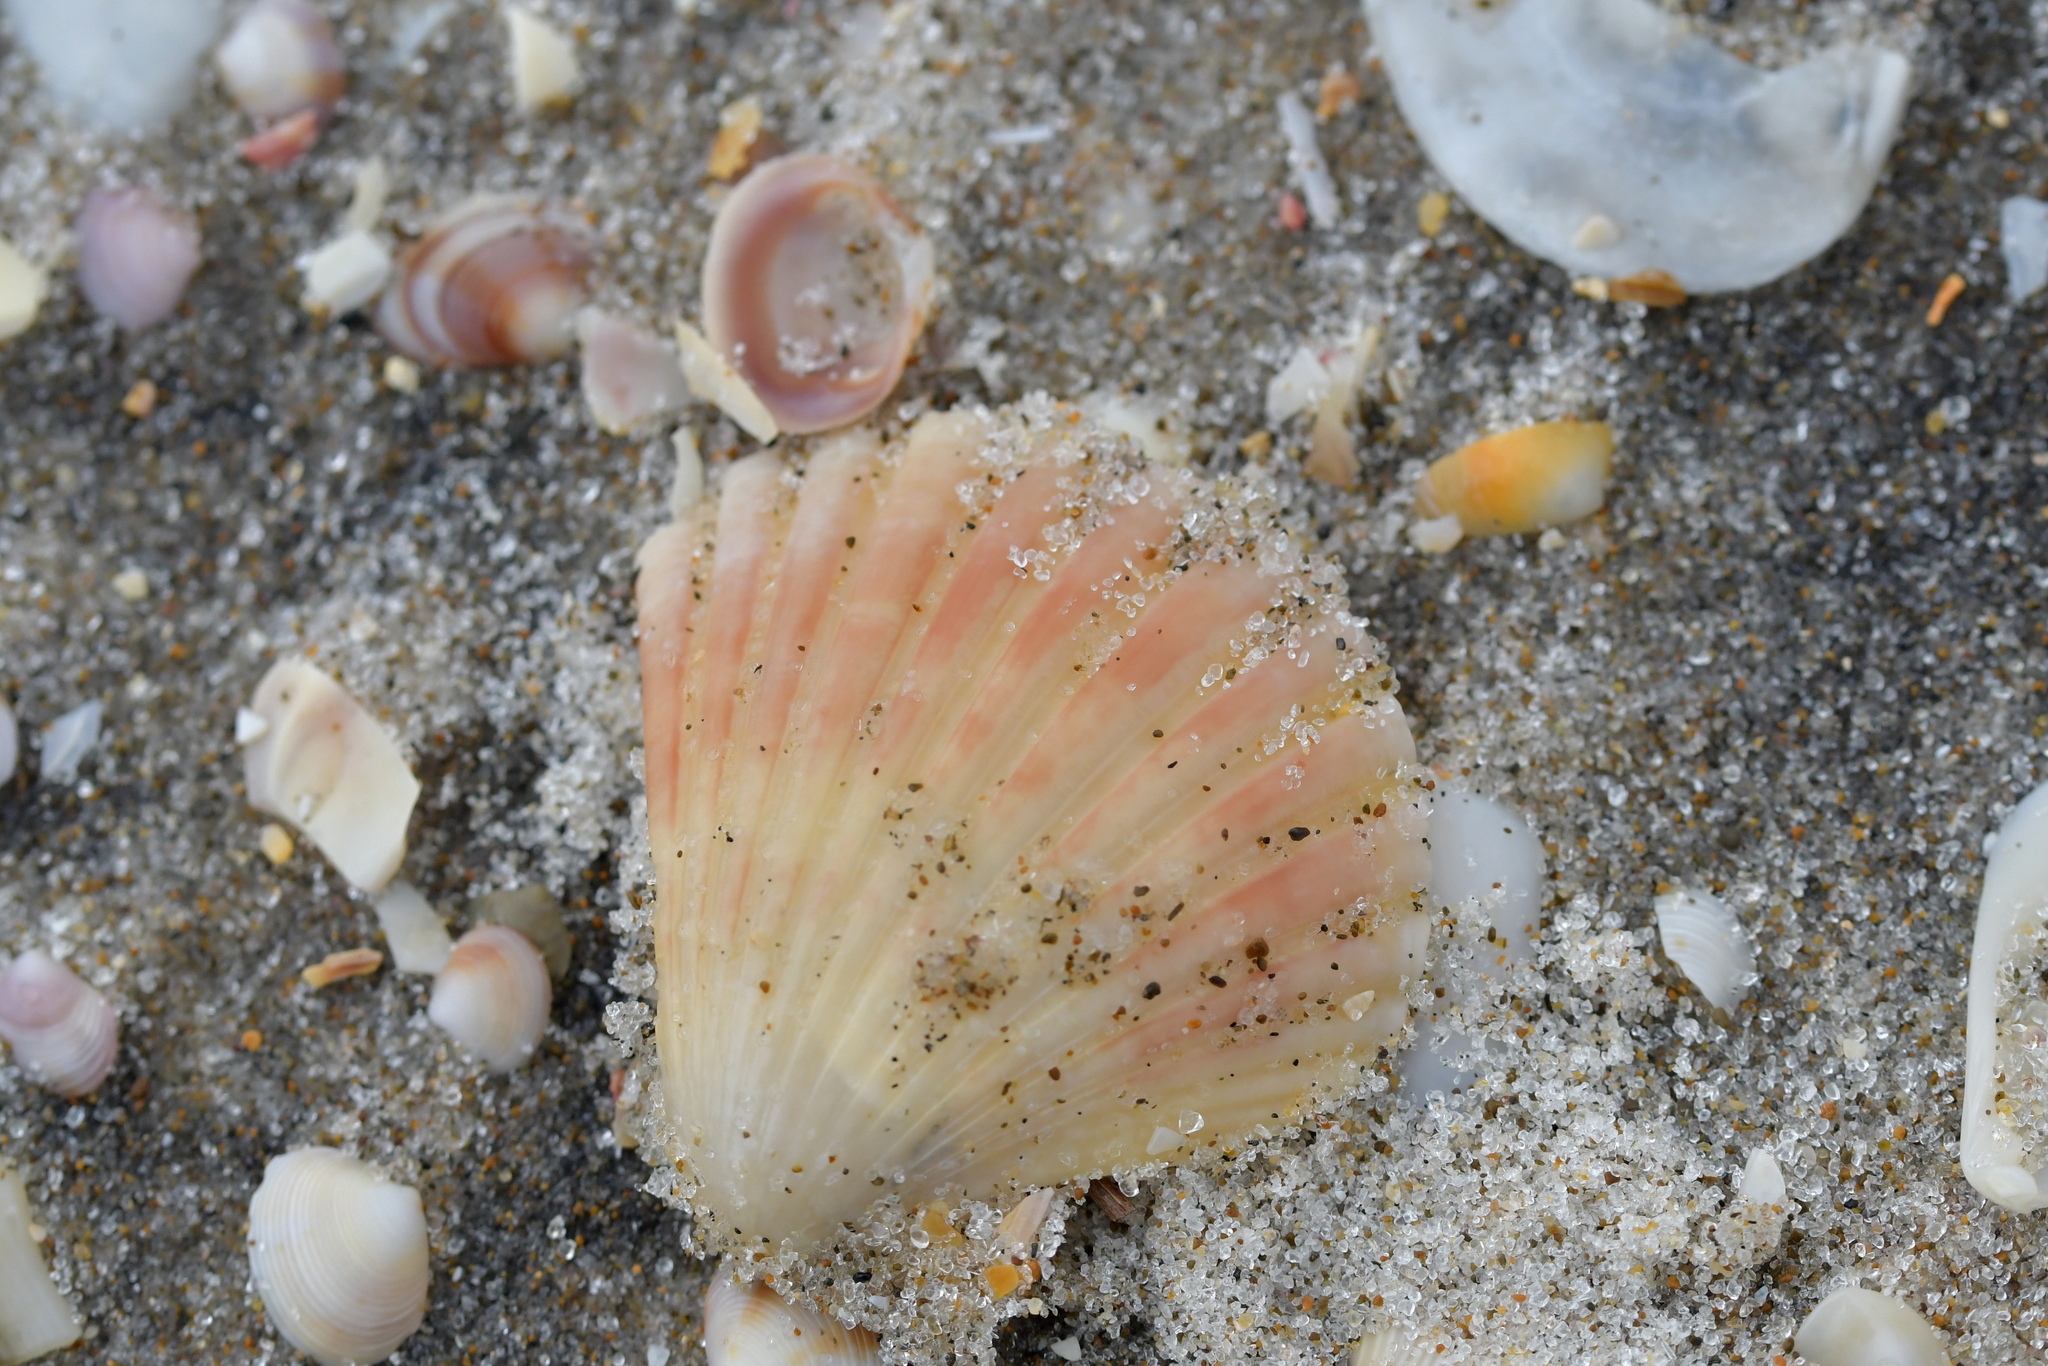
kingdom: Animalia
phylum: Mollusca
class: Bivalvia
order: Pectinida
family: Pectinidae
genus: Pecten
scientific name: Pecten novaezelandiae
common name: New zealand scallop
